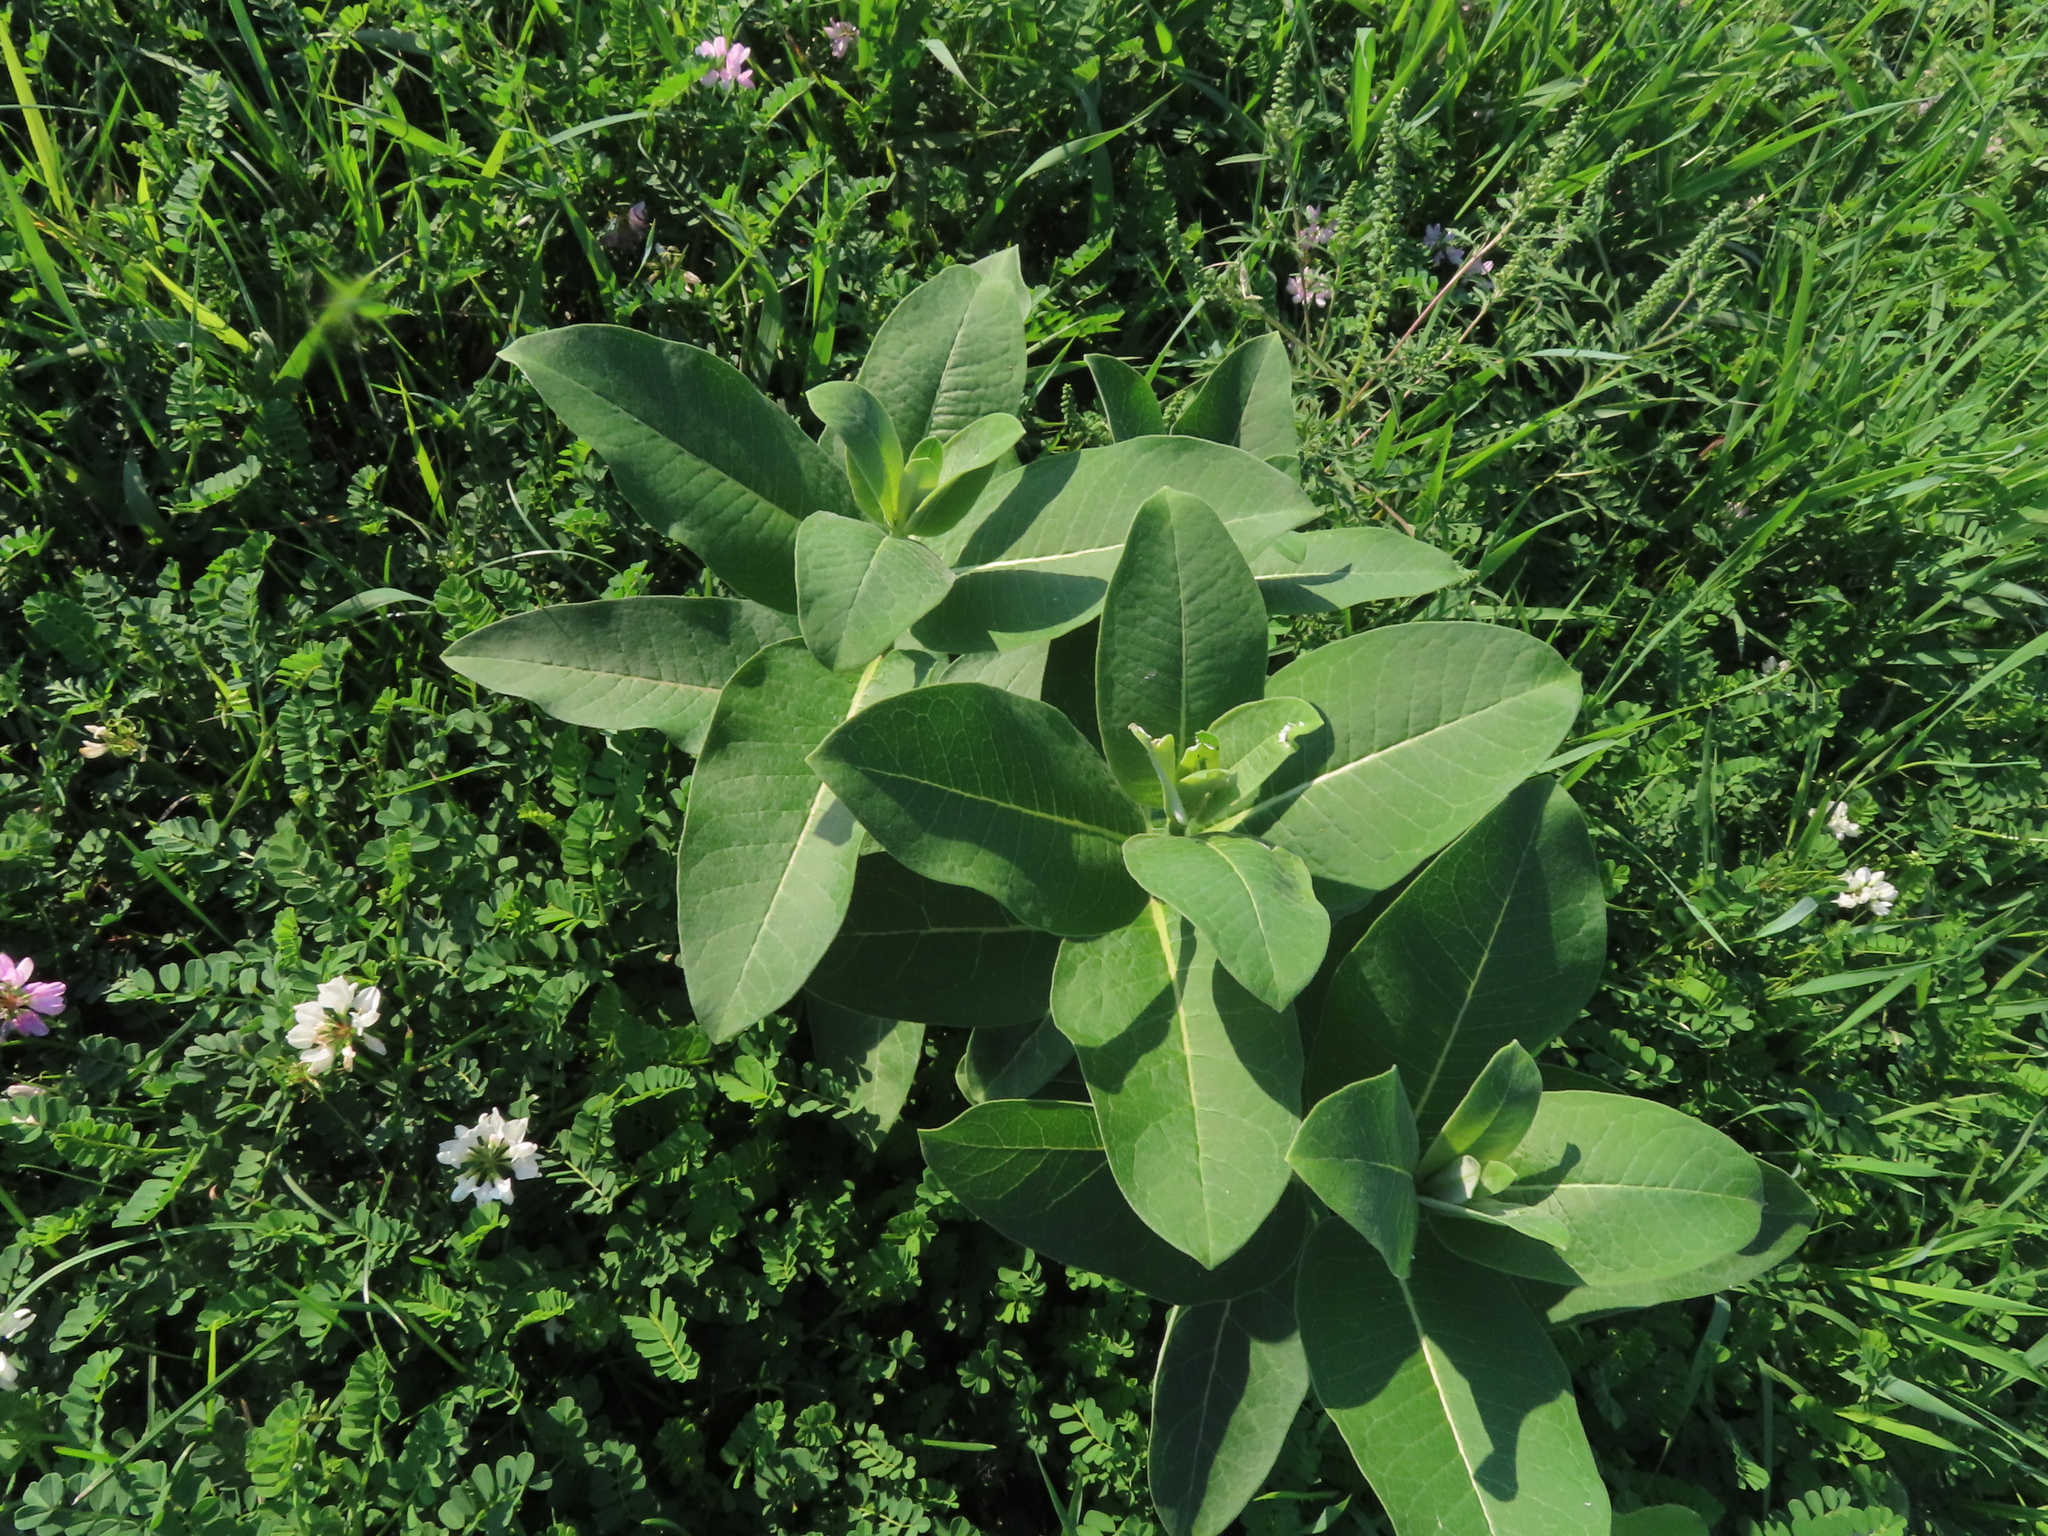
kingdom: Plantae
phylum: Tracheophyta
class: Magnoliopsida
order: Gentianales
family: Apocynaceae
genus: Asclepias
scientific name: Asclepias syriaca
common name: Common milkweed
